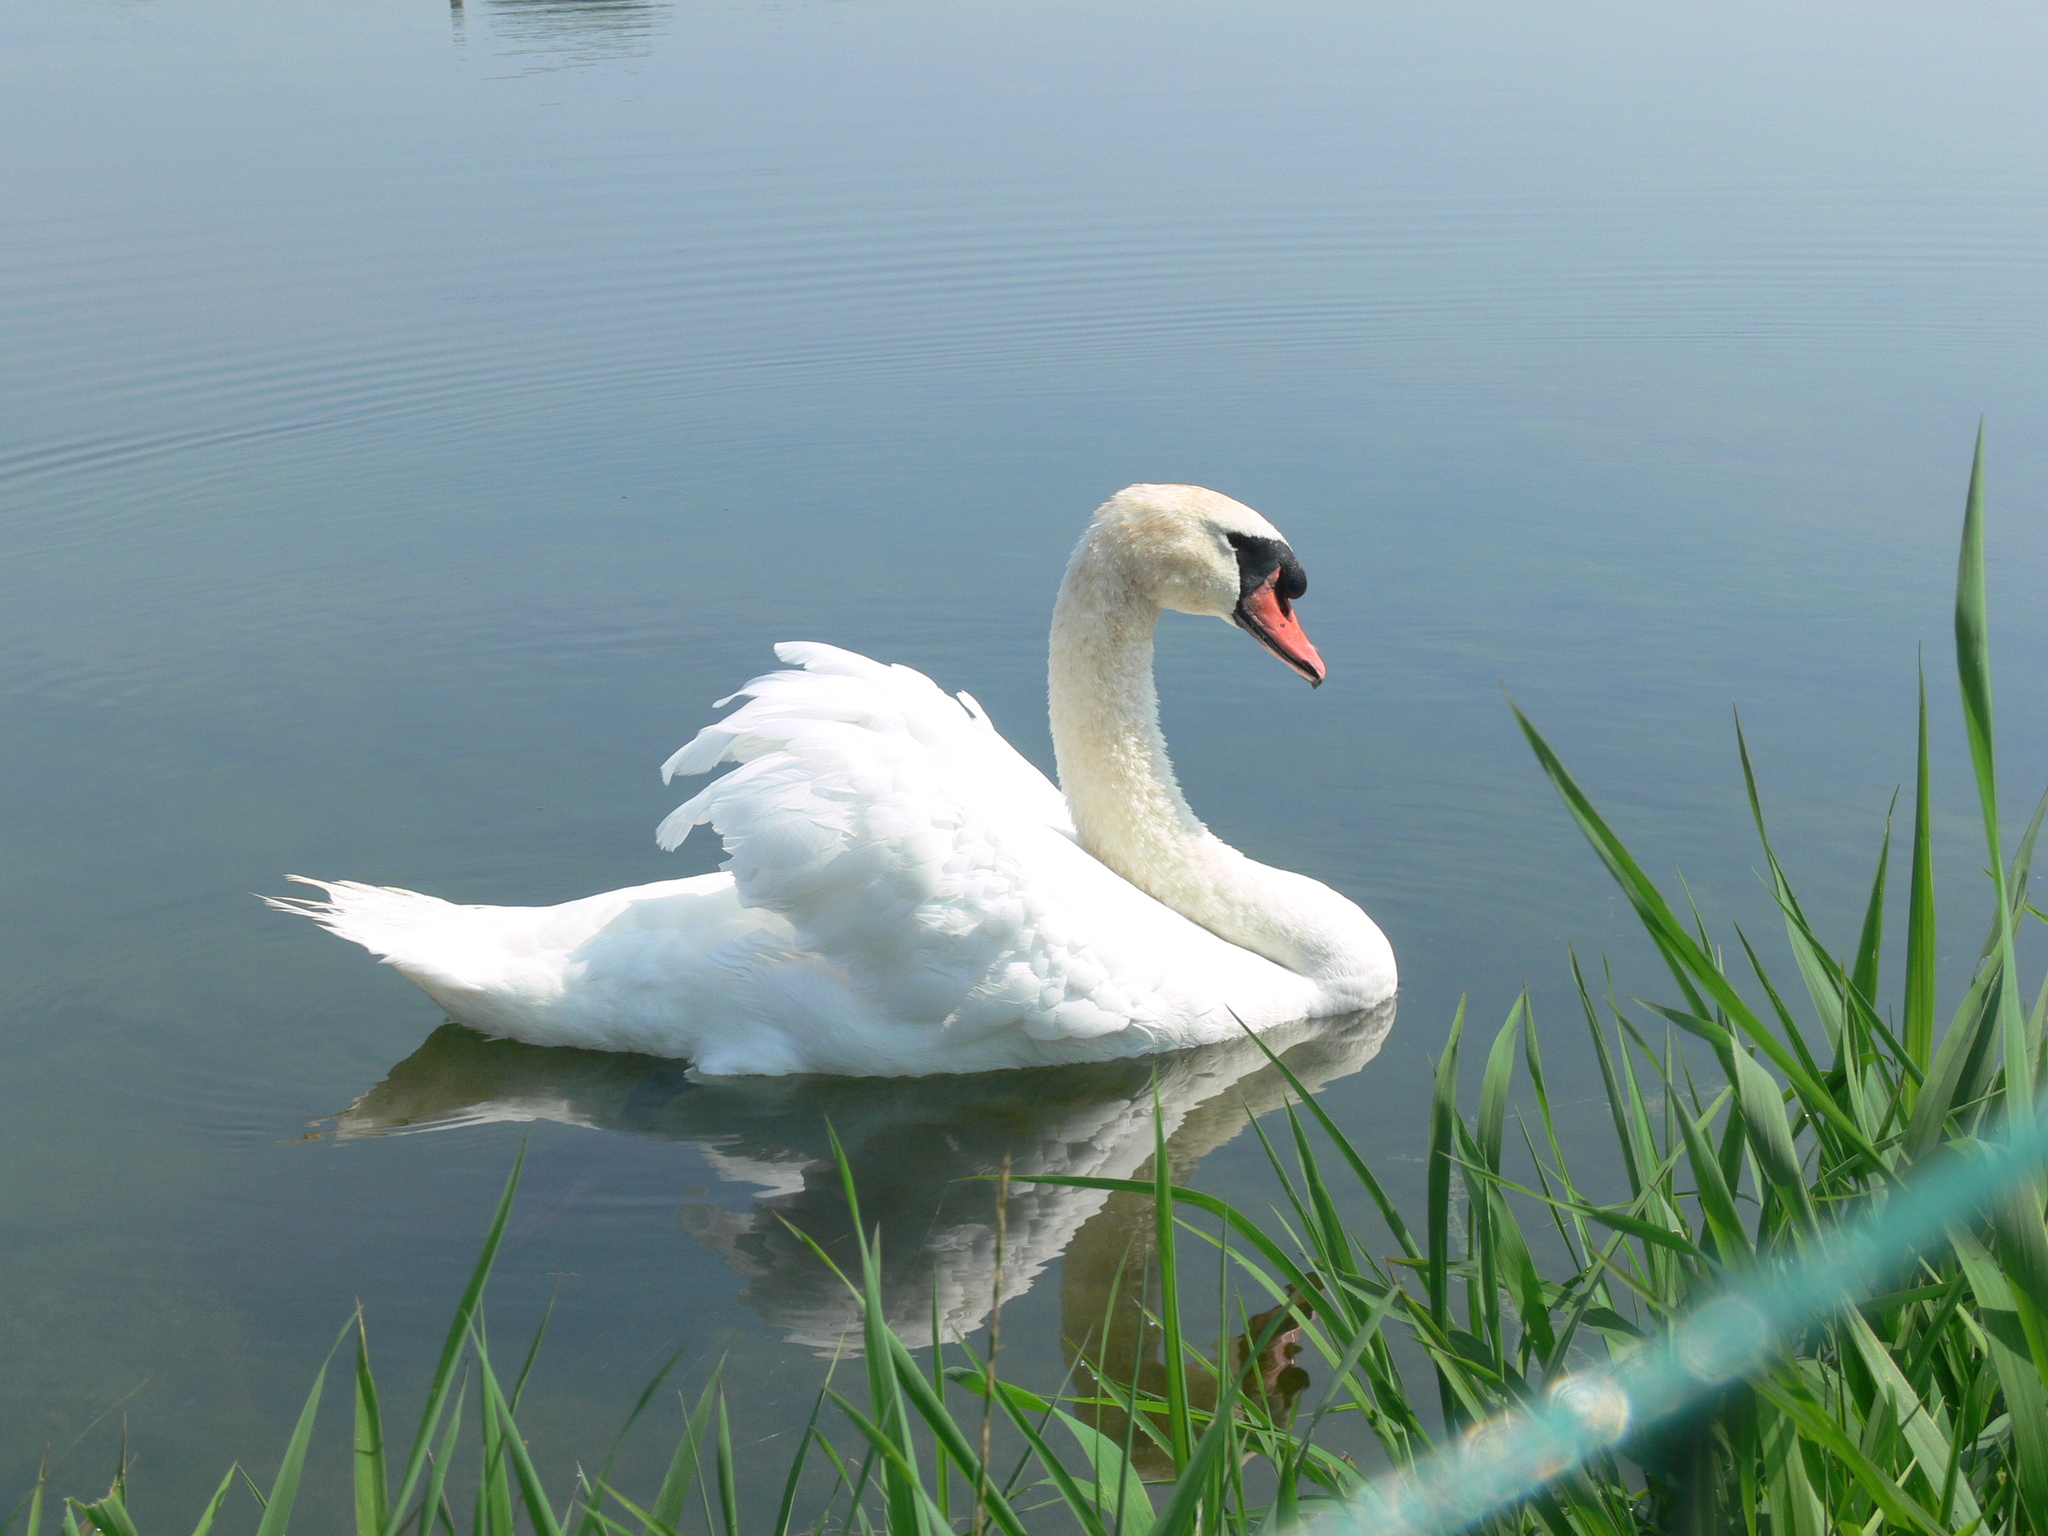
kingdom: Animalia
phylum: Chordata
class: Aves
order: Anseriformes
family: Anatidae
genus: Cygnus
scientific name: Cygnus olor
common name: Mute swan
